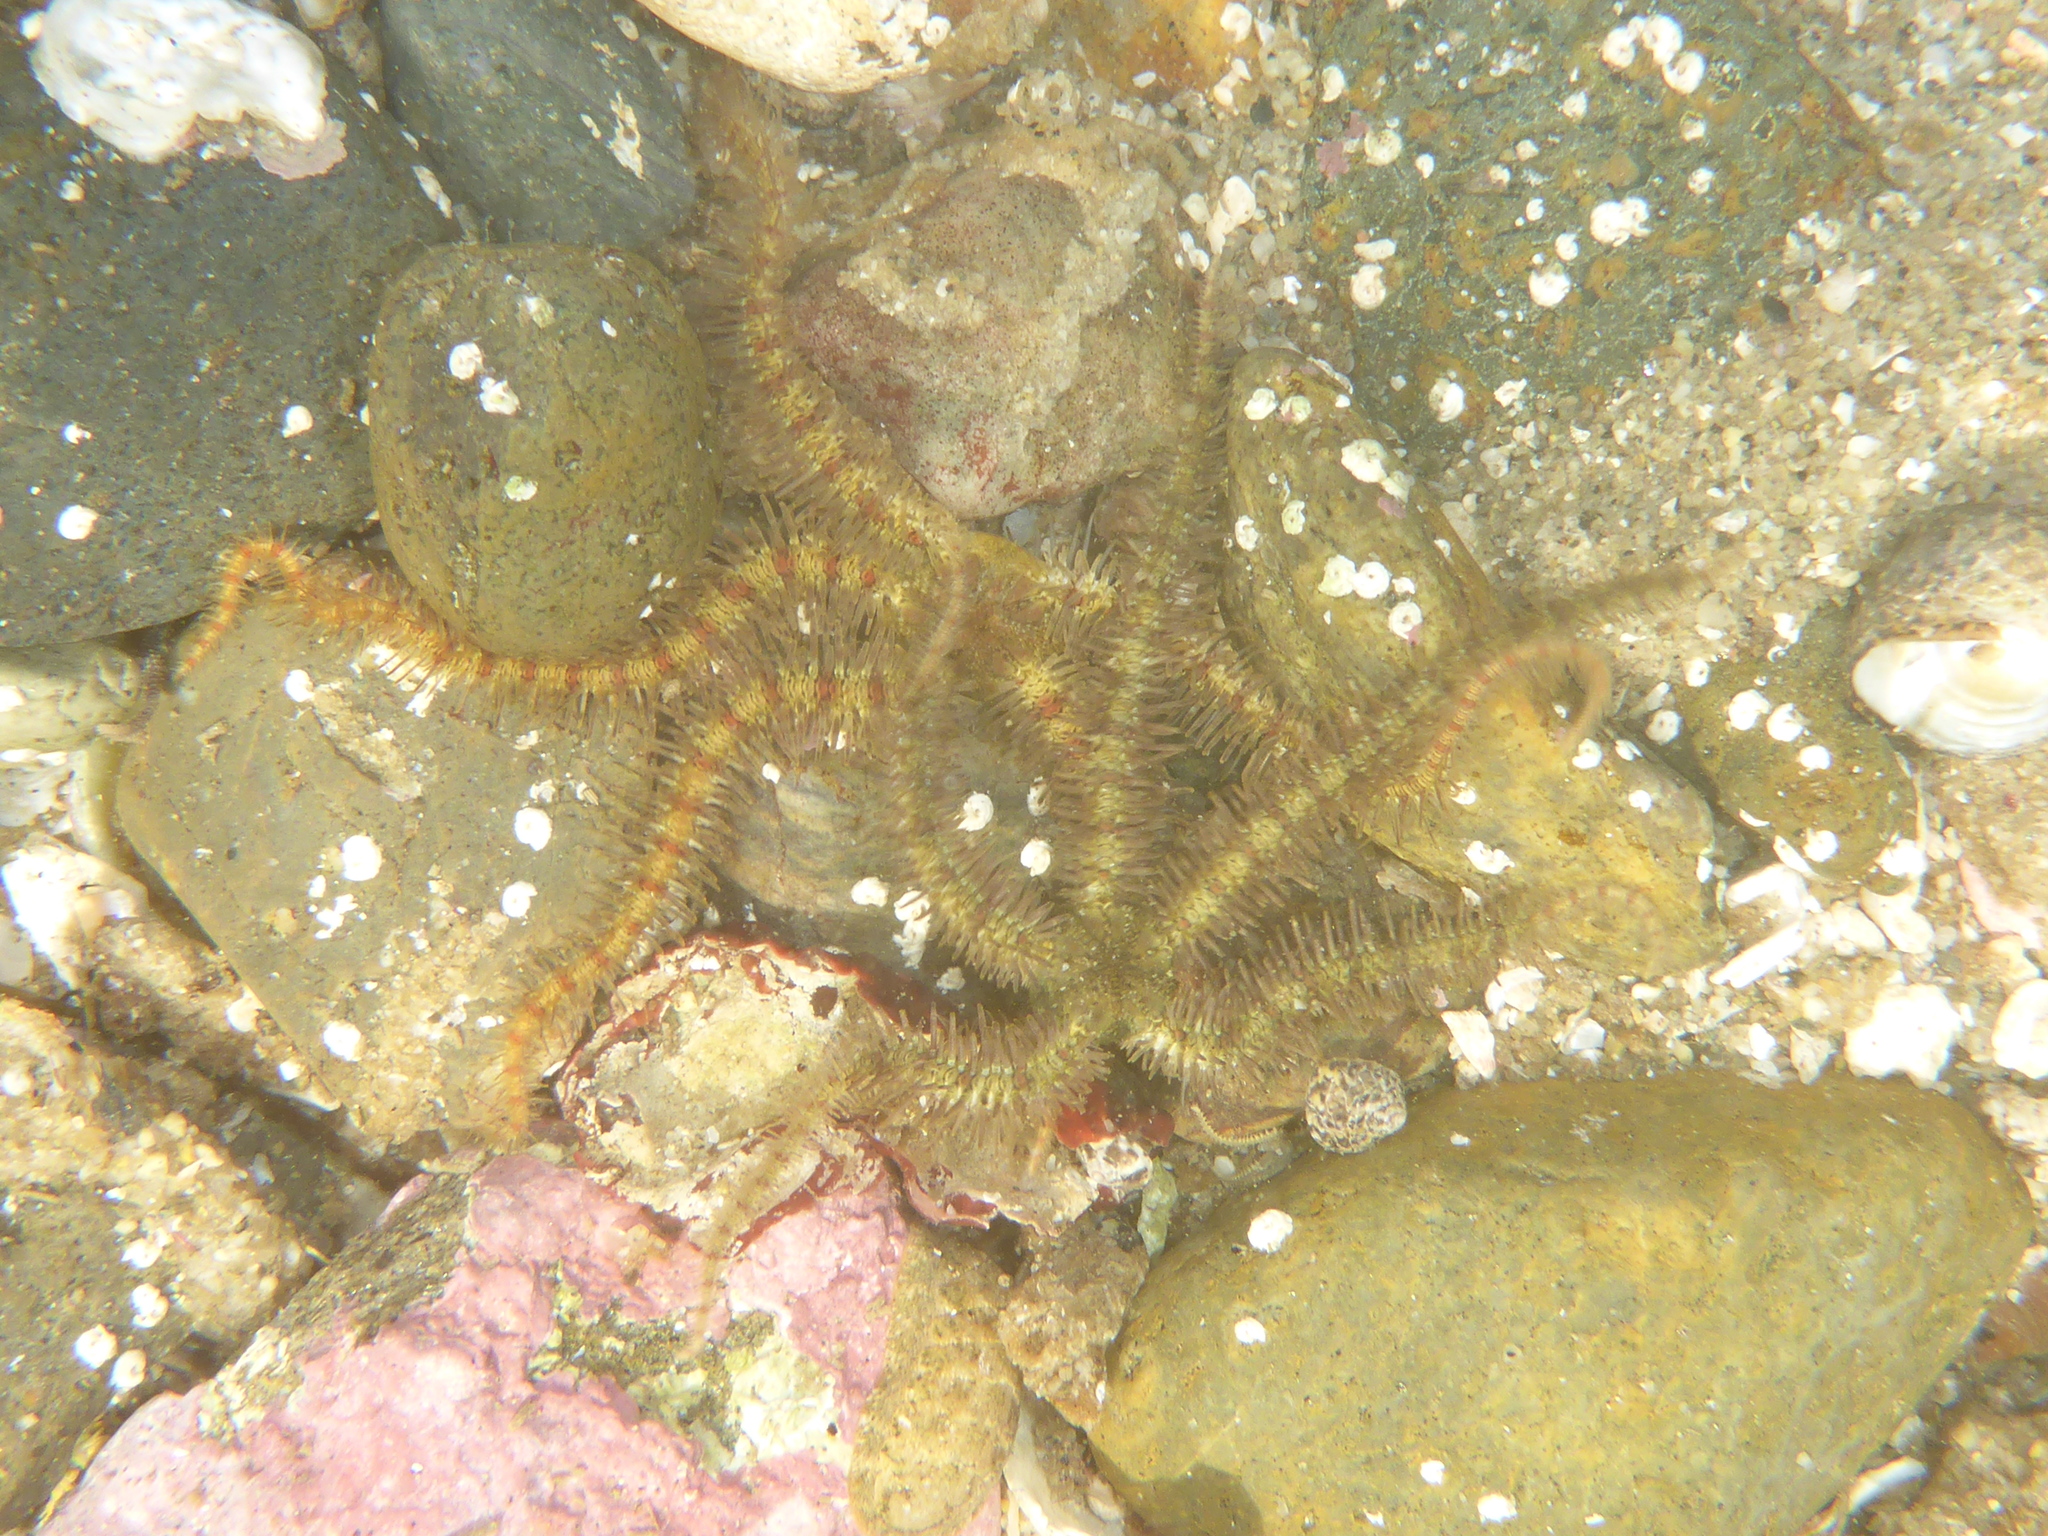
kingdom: Animalia
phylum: Echinodermata
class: Ophiuroidea
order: Amphilepidida
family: Ophiotrichidae
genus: Ophiothrix
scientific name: Ophiothrix spiculata
